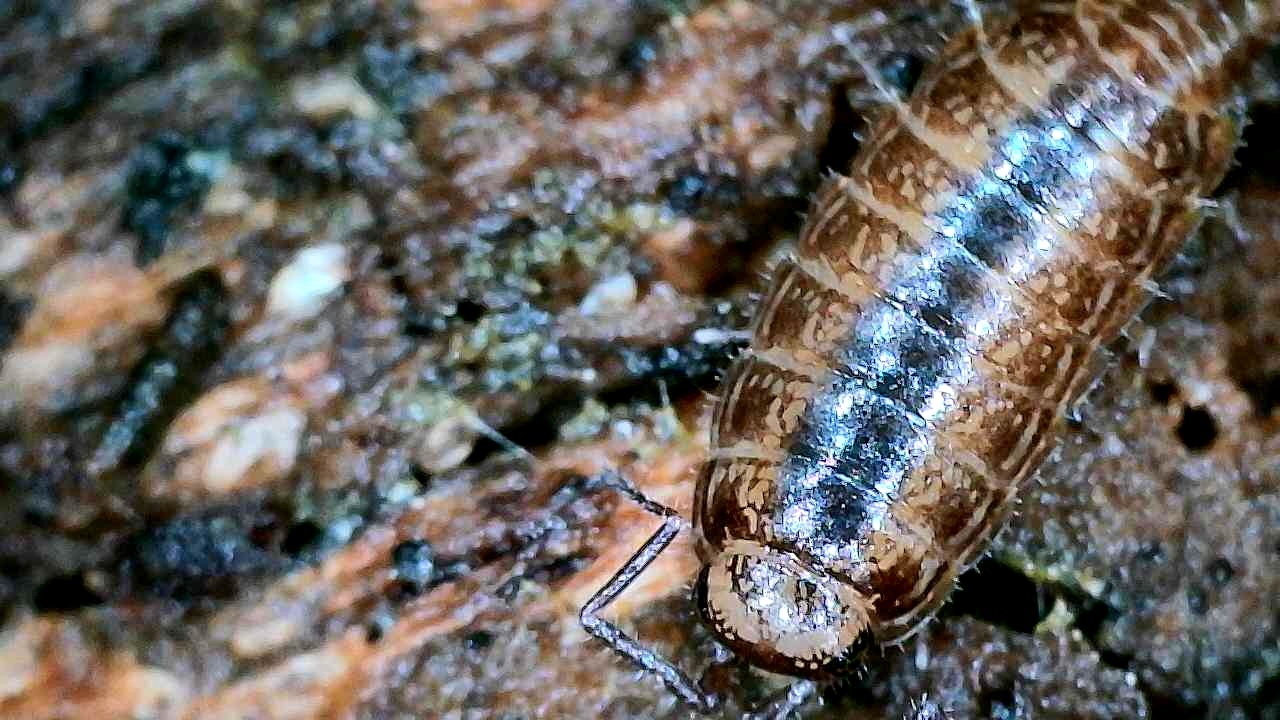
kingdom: Animalia
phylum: Arthropoda
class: Malacostraca
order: Isopoda
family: Philosciidae
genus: Atlantoscia
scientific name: Atlantoscia floridana
